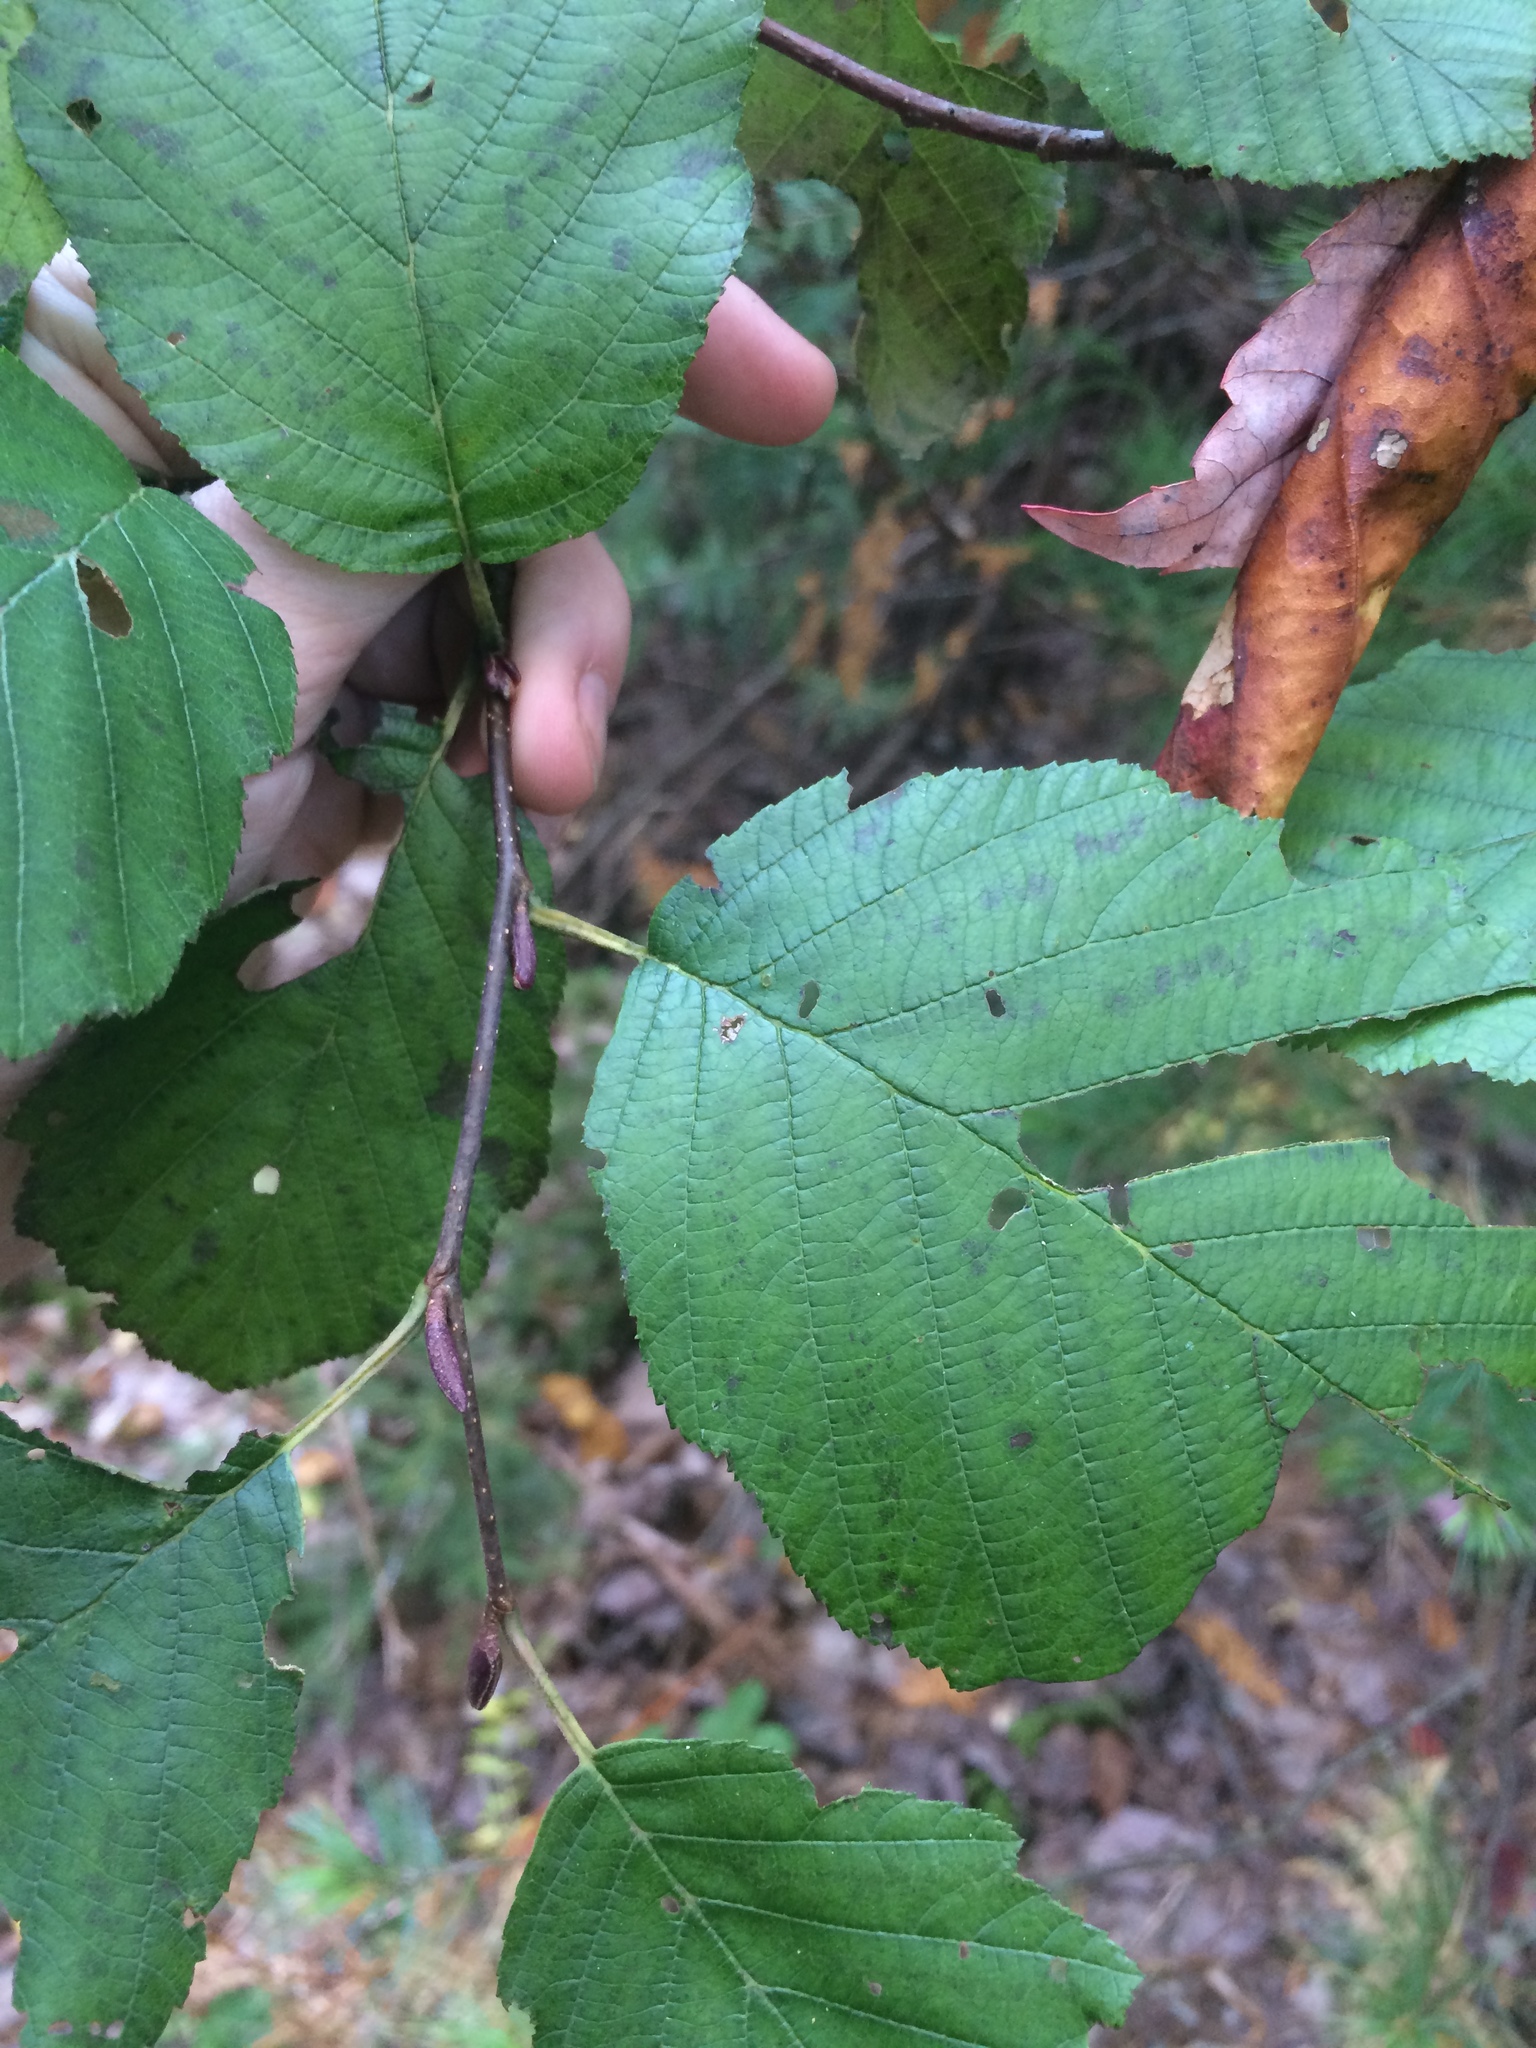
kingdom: Plantae
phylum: Tracheophyta
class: Magnoliopsida
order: Fagales
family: Betulaceae
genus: Alnus
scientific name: Alnus incana
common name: Grey alder
